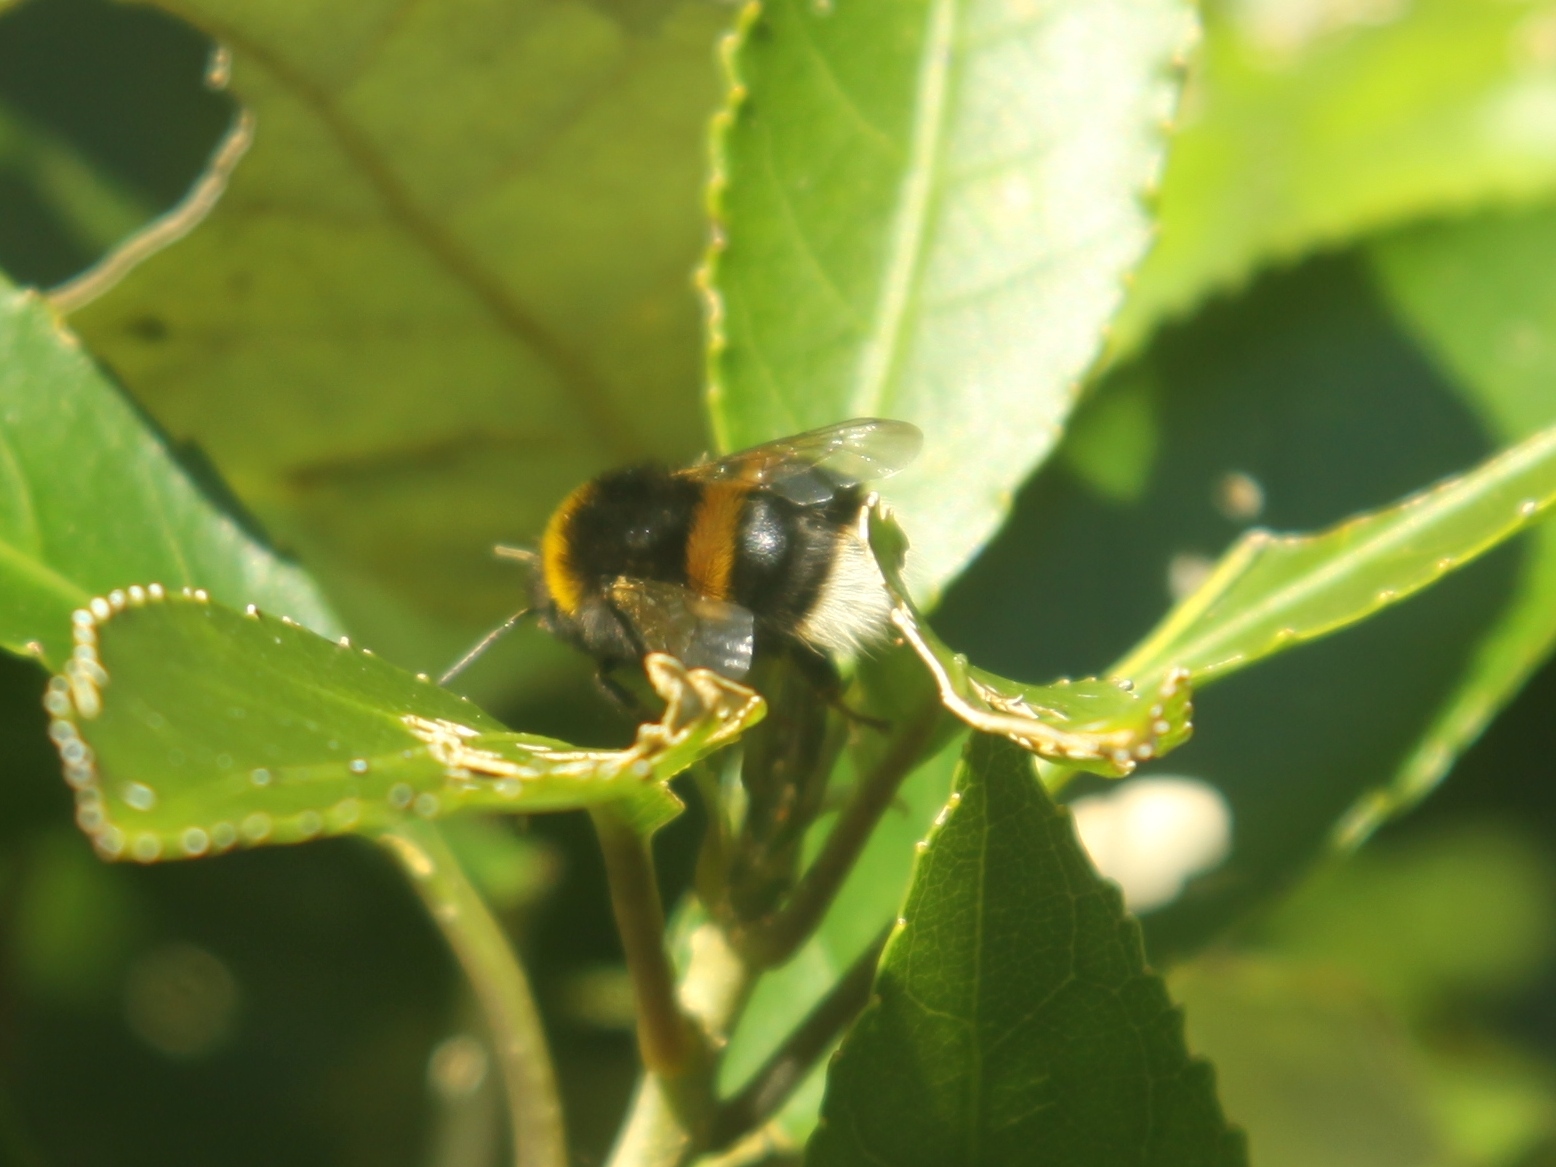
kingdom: Animalia
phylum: Arthropoda
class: Insecta
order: Hymenoptera
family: Apidae
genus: Bombus
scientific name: Bombus terrestris
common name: Buff-tailed bumblebee
